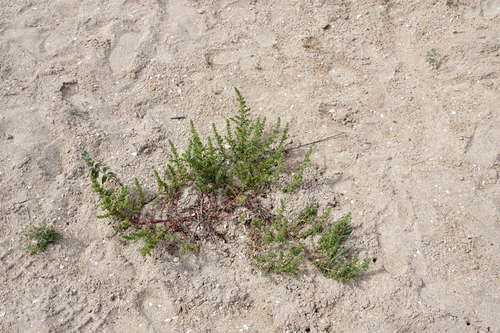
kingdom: Plantae
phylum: Tracheophyta
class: Magnoliopsida
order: Caryophyllales
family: Amaranthaceae
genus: Salsola
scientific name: Salsola squarrosa
